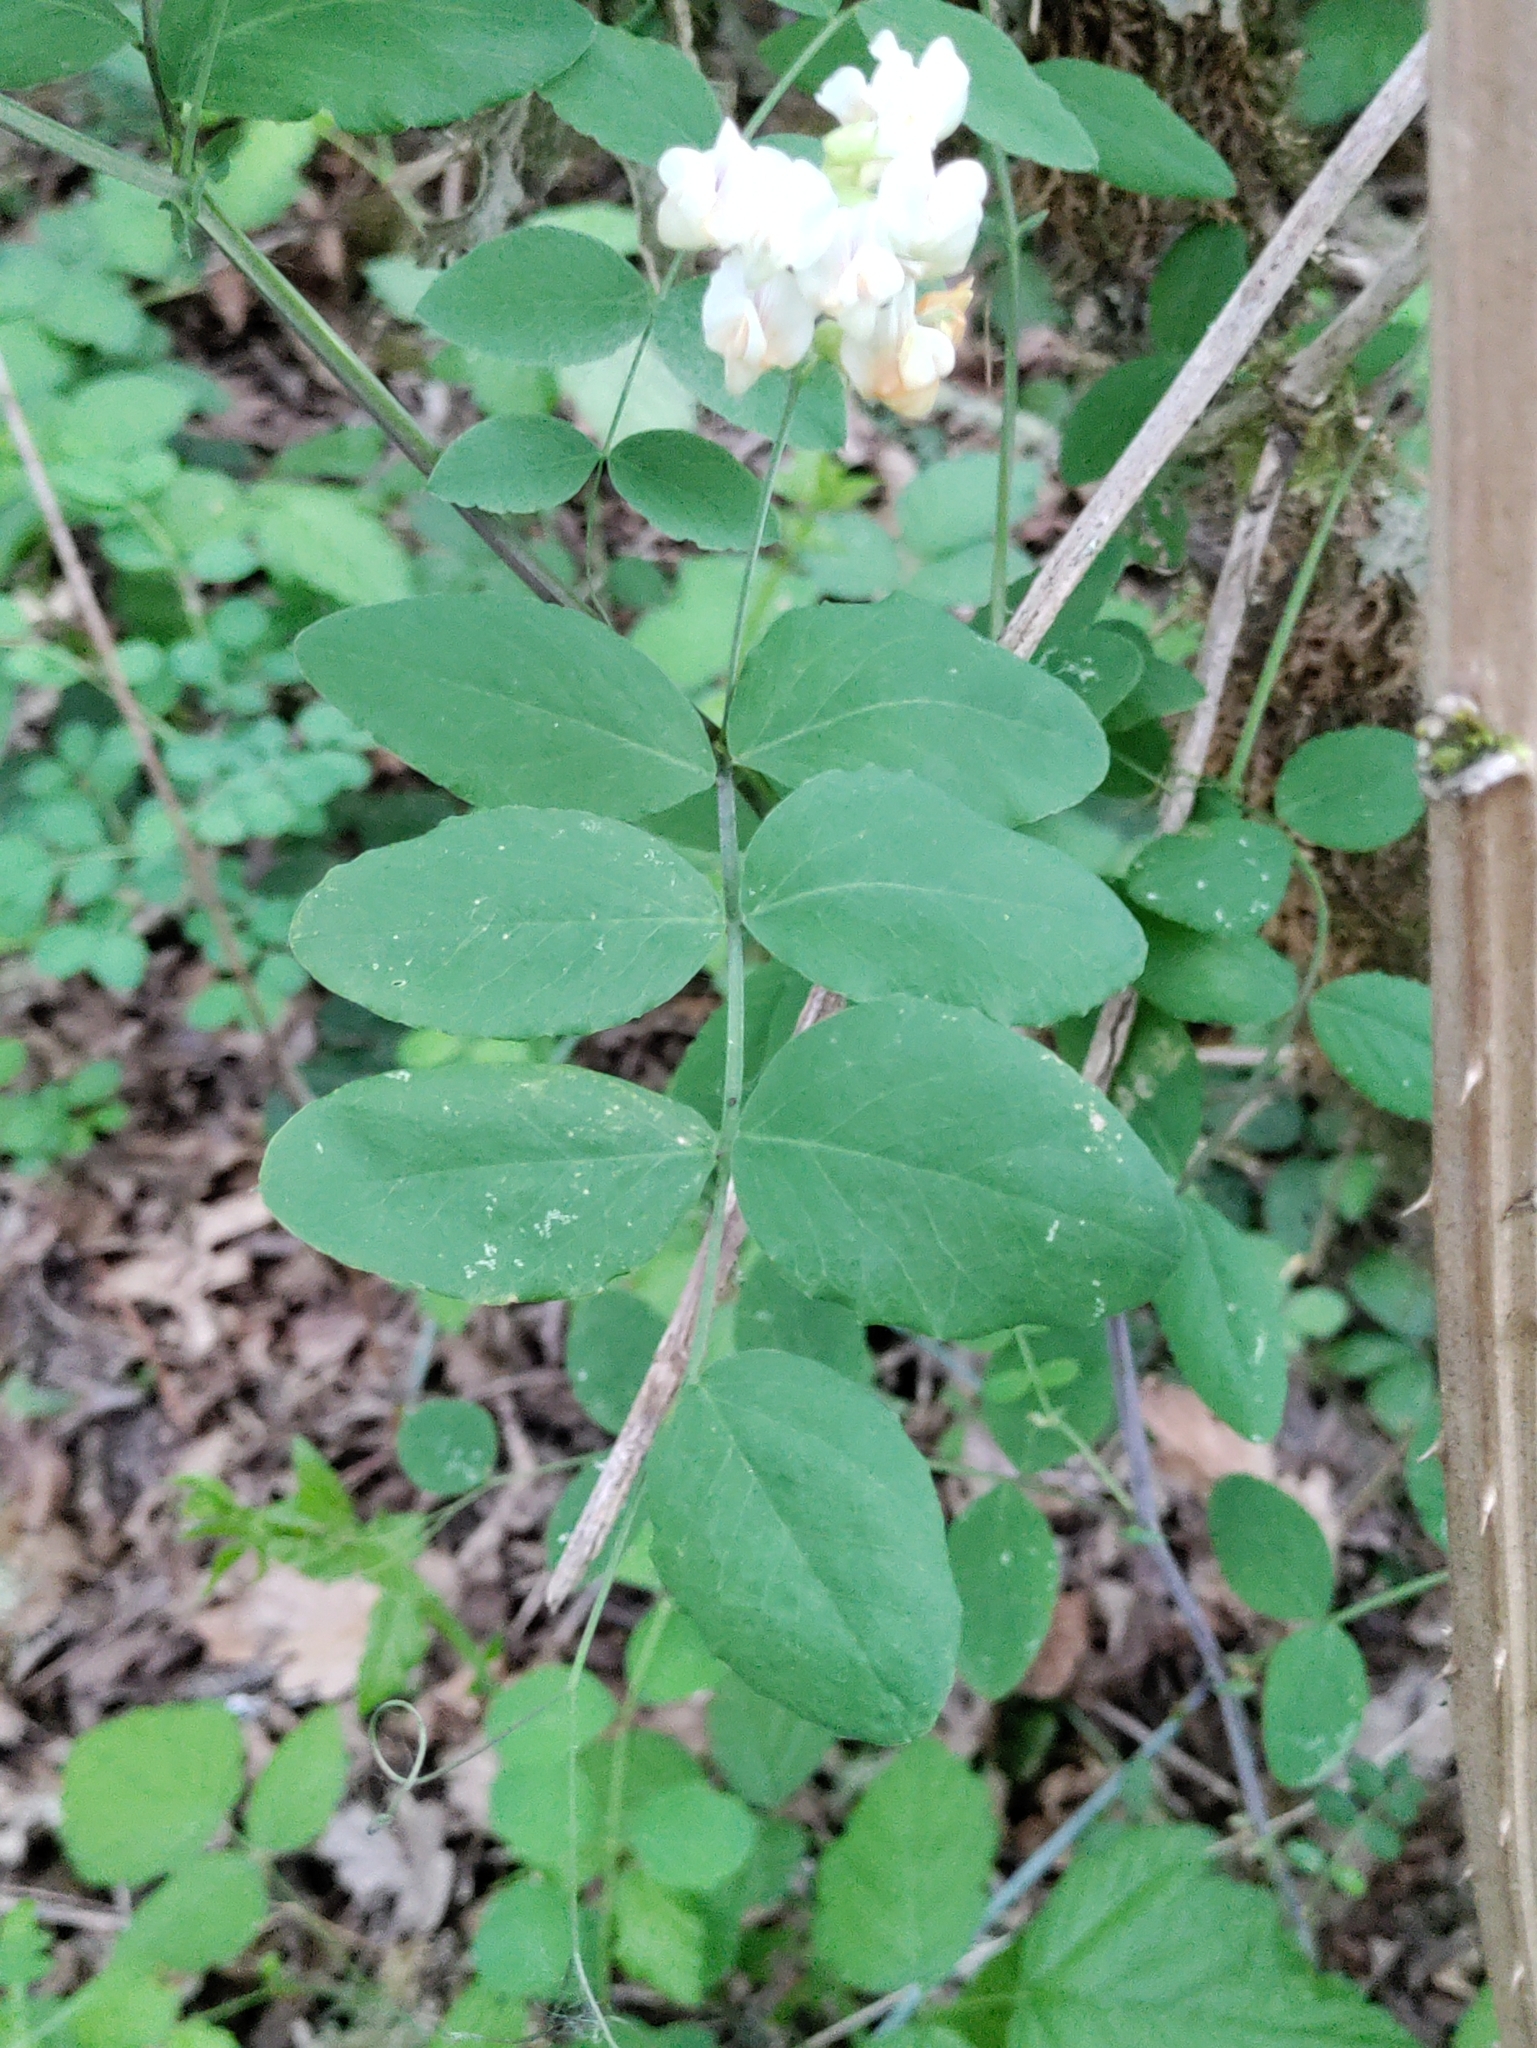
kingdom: Plantae
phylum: Tracheophyta
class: Magnoliopsida
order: Fabales
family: Fabaceae
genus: Lathyrus
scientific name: Lathyrus holochlorus
